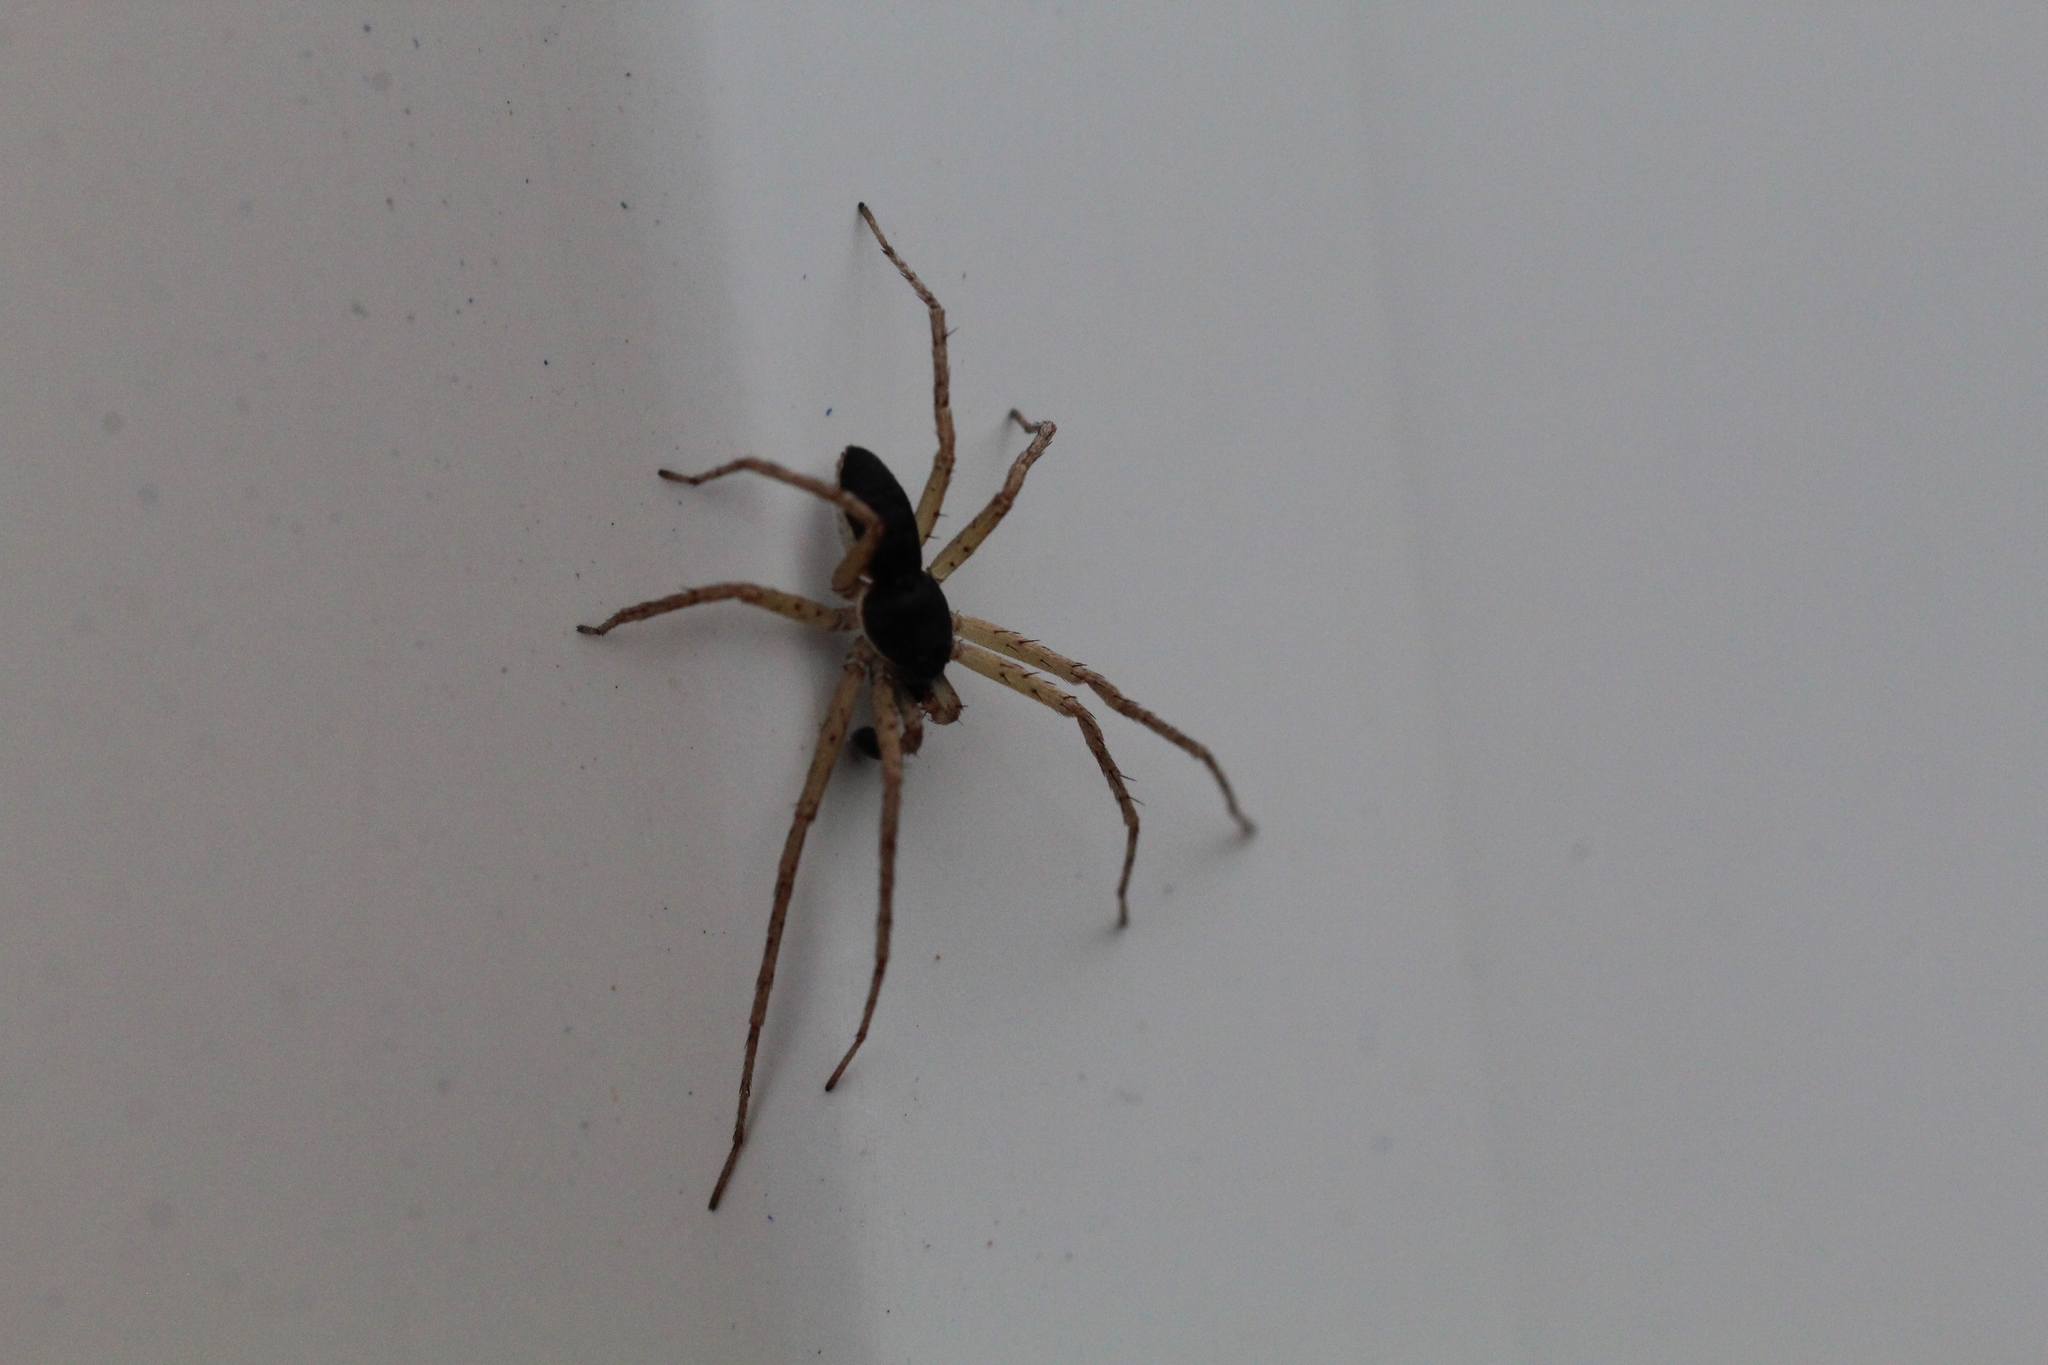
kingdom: Animalia
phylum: Arthropoda
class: Arachnida
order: Araneae
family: Philodromidae
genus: Philodromus
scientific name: Philodromus dispar
